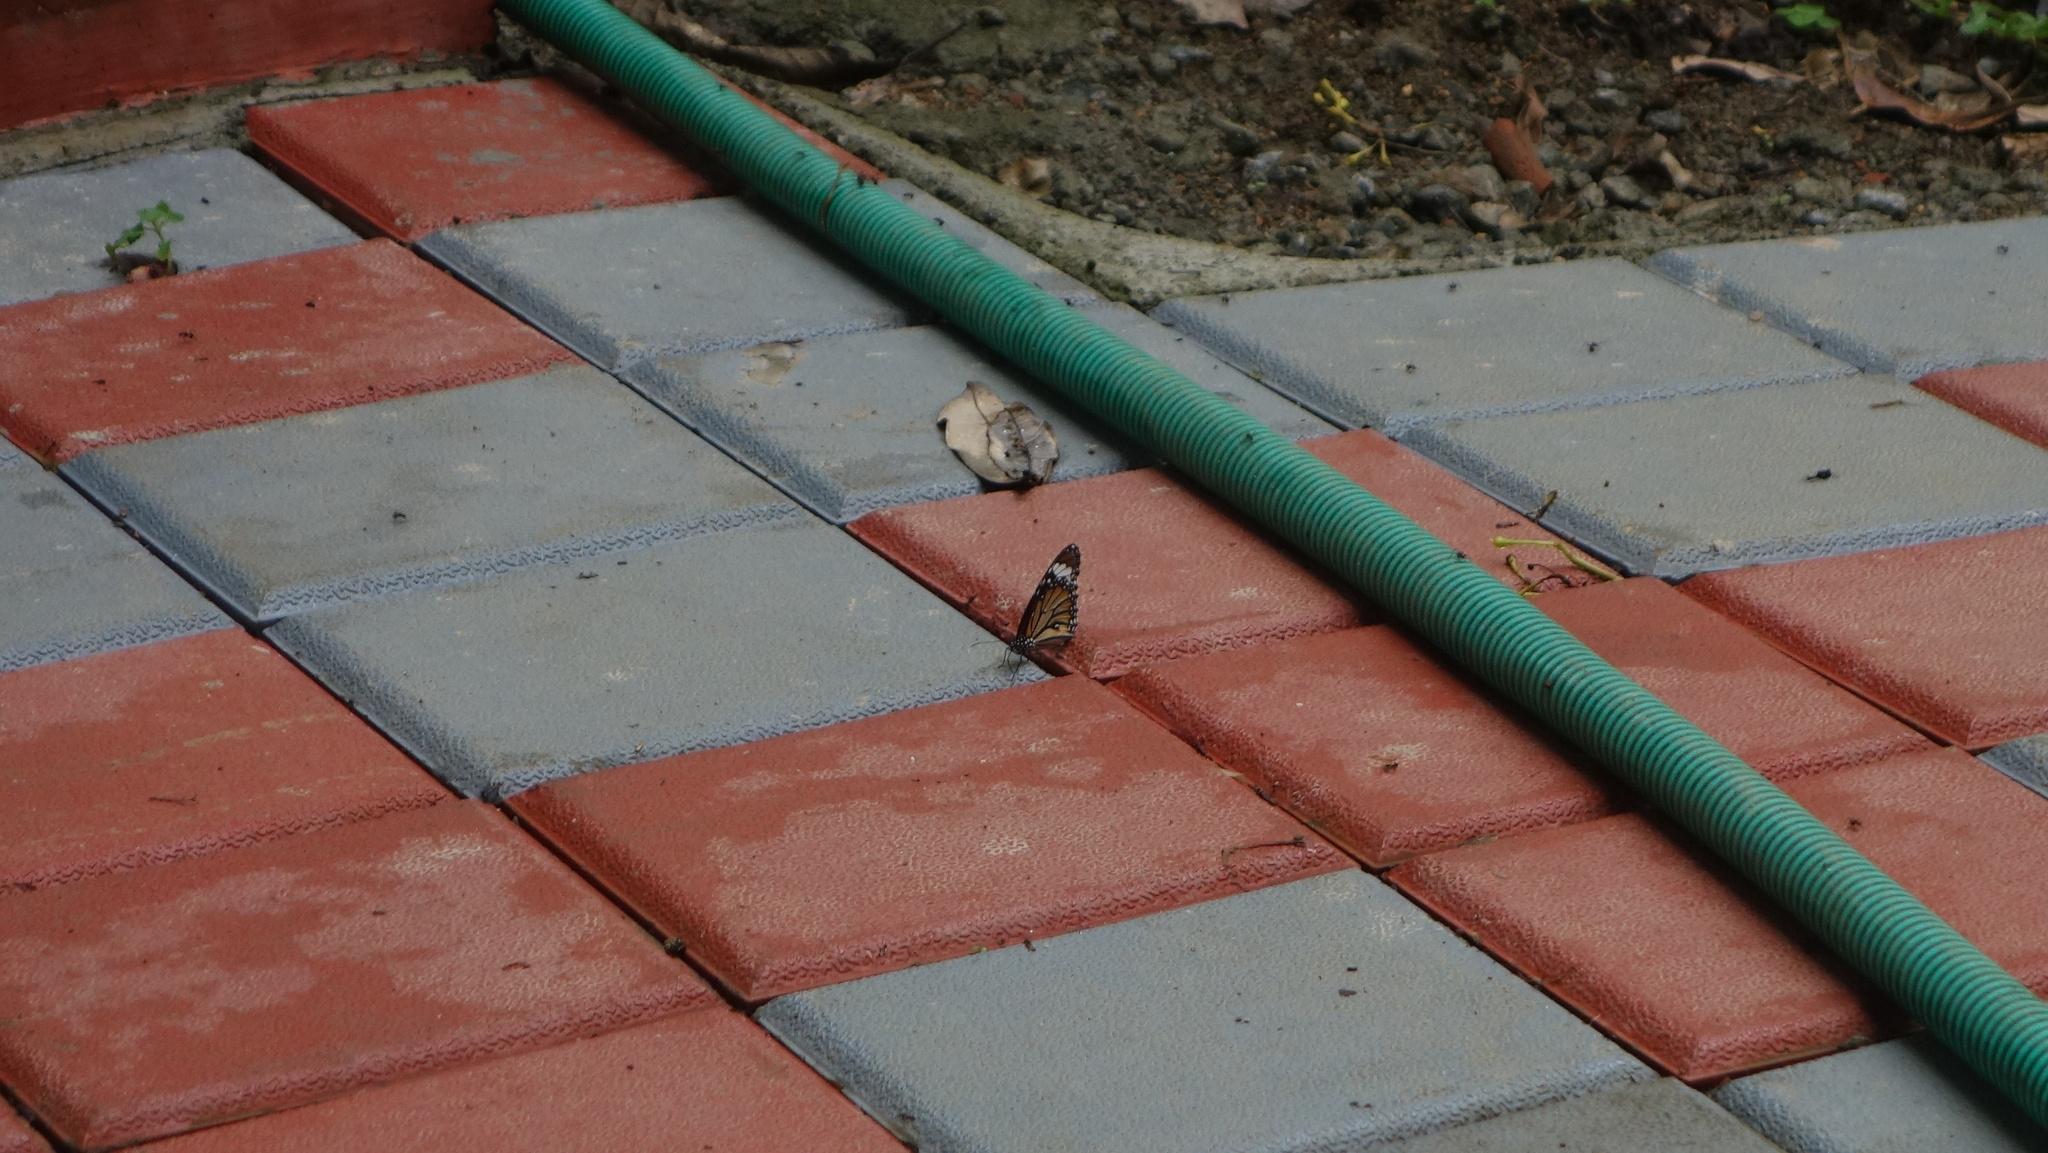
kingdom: Animalia
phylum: Arthropoda
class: Insecta
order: Lepidoptera
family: Nymphalidae
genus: Danaus
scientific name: Danaus genutia
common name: Common tiger butterfly
